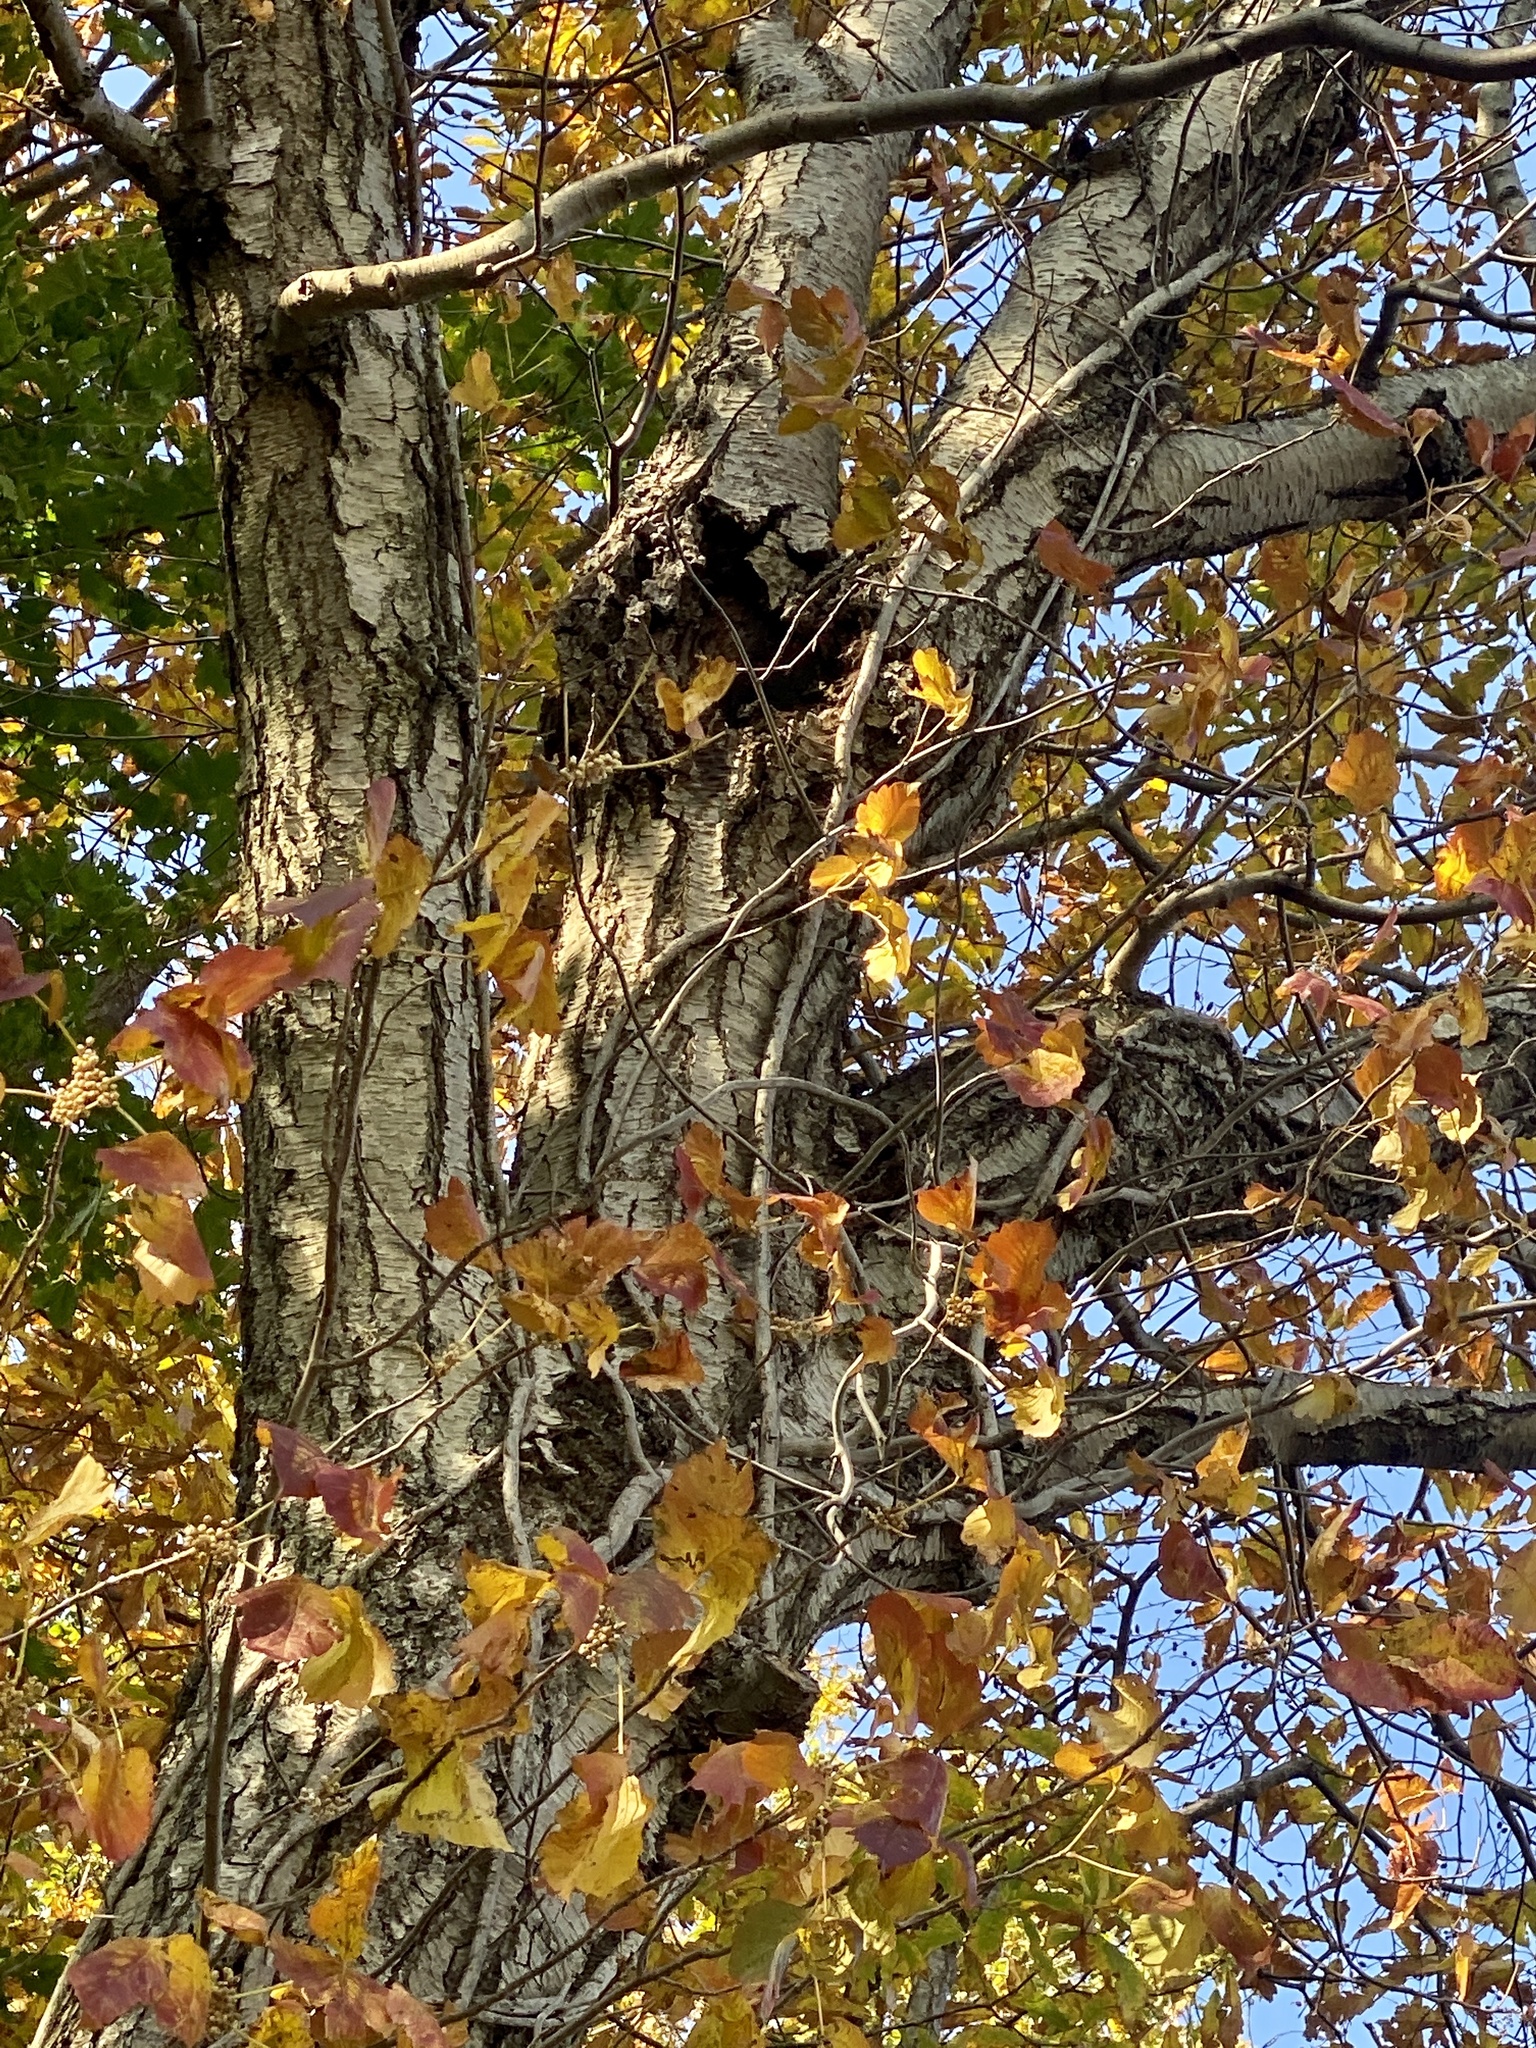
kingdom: Plantae
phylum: Tracheophyta
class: Magnoliopsida
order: Fagales
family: Betulaceae
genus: Betula
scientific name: Betula lenta
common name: Black birch
